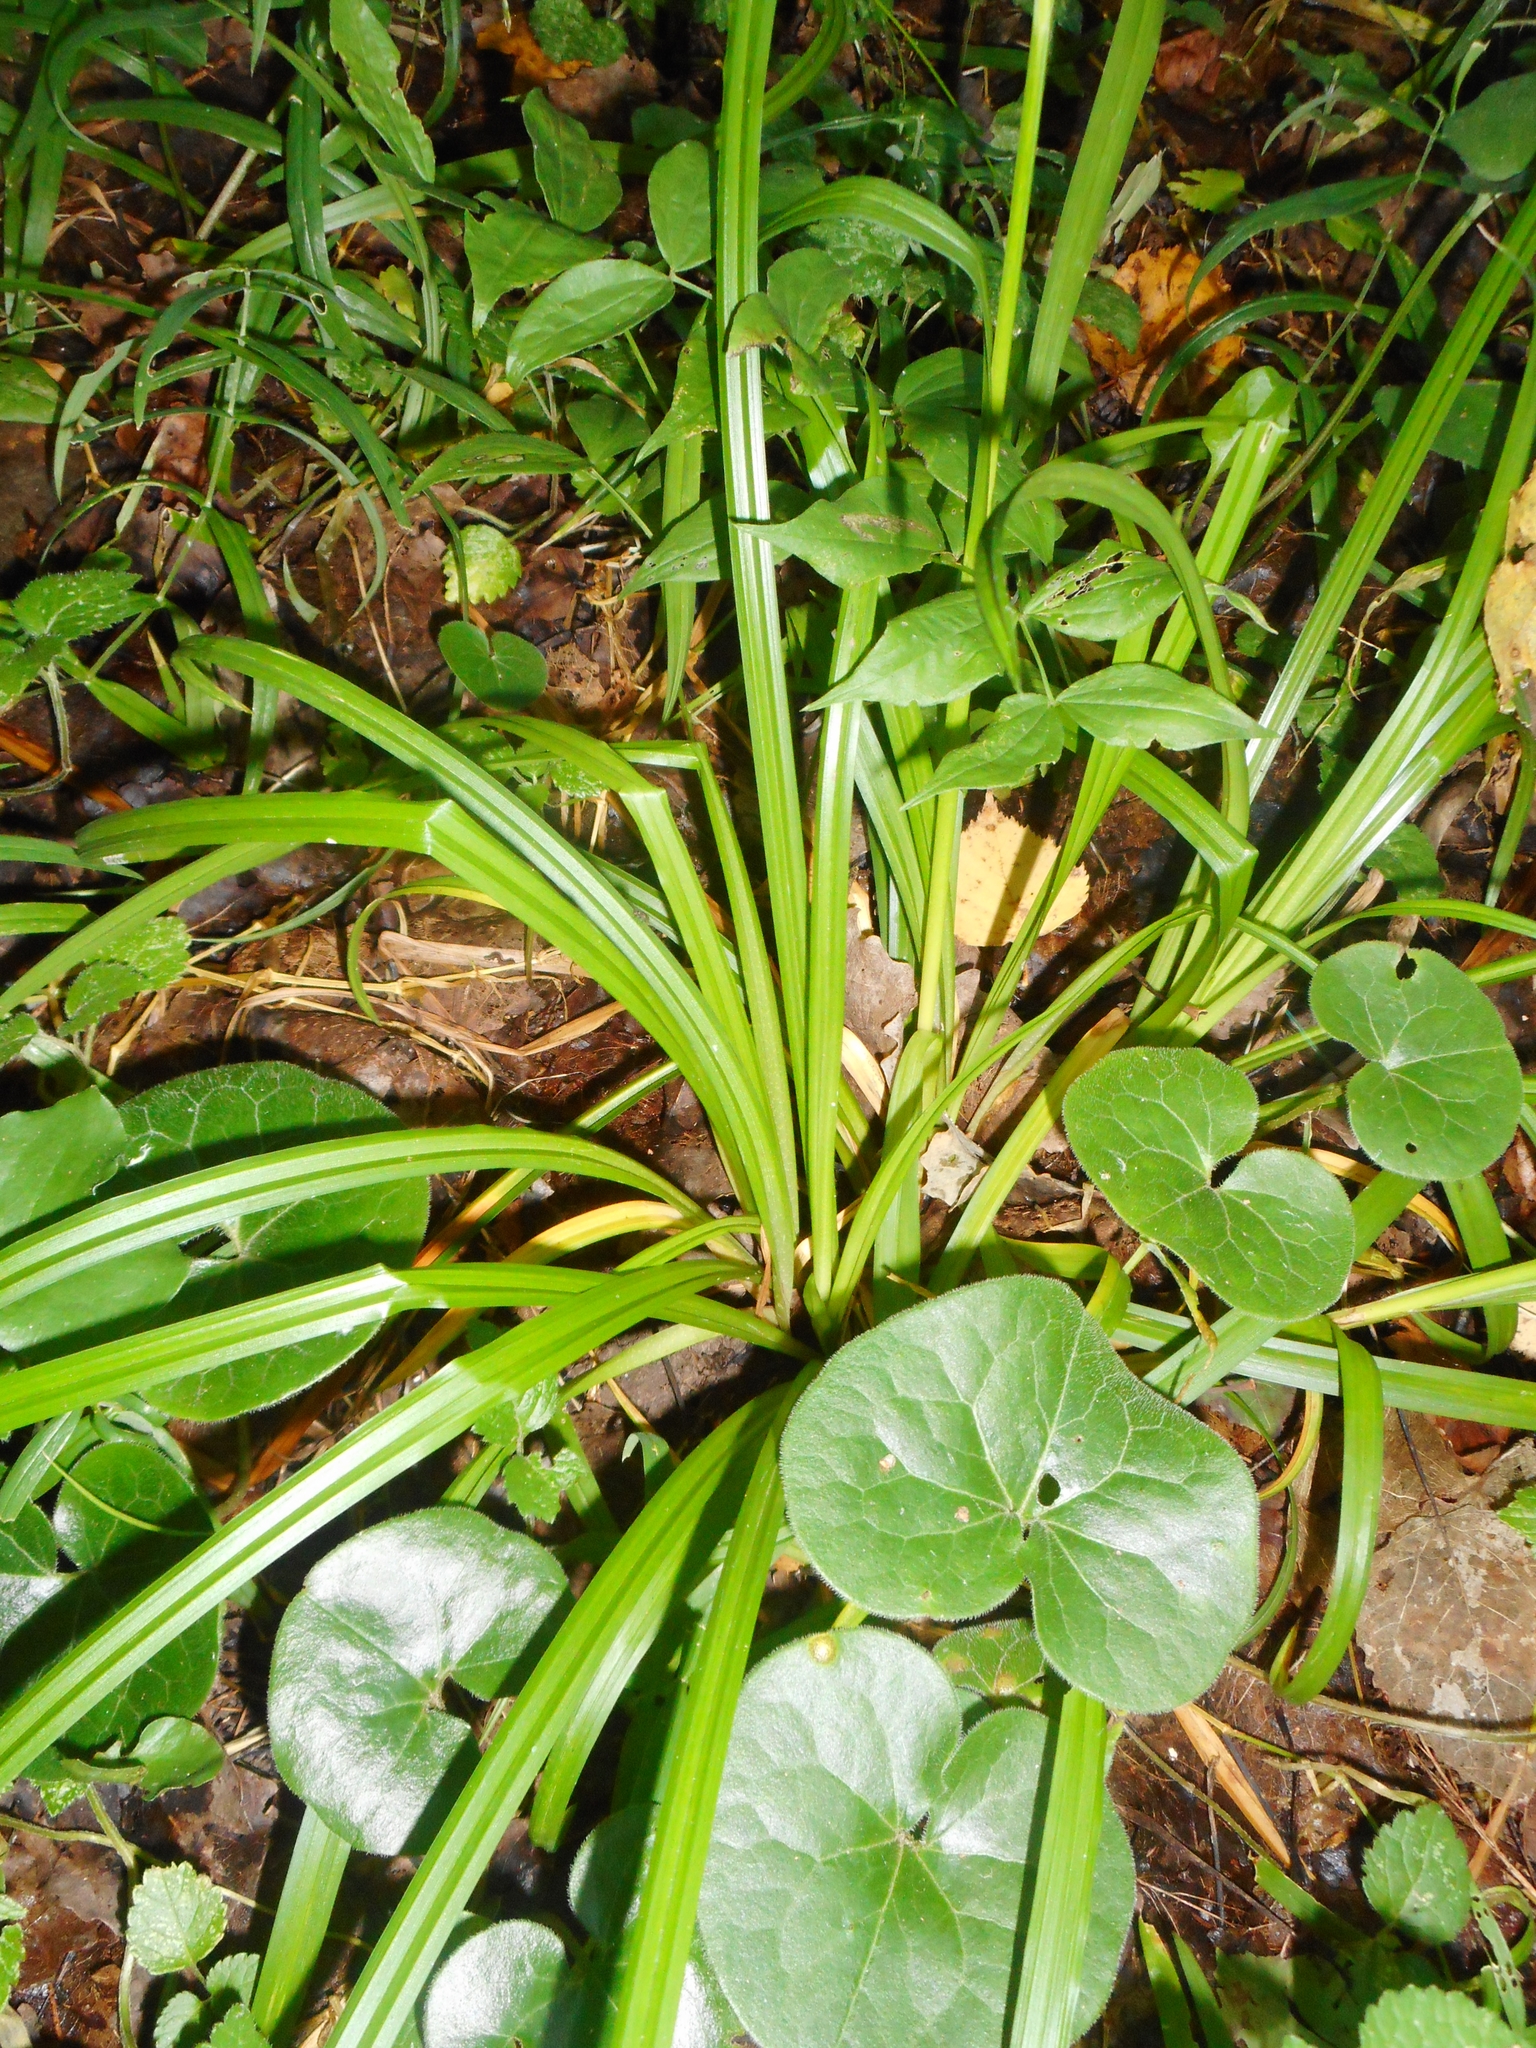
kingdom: Plantae
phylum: Tracheophyta
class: Liliopsida
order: Poales
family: Cyperaceae
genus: Carex
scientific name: Carex sylvatica
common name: Wood-sedge
